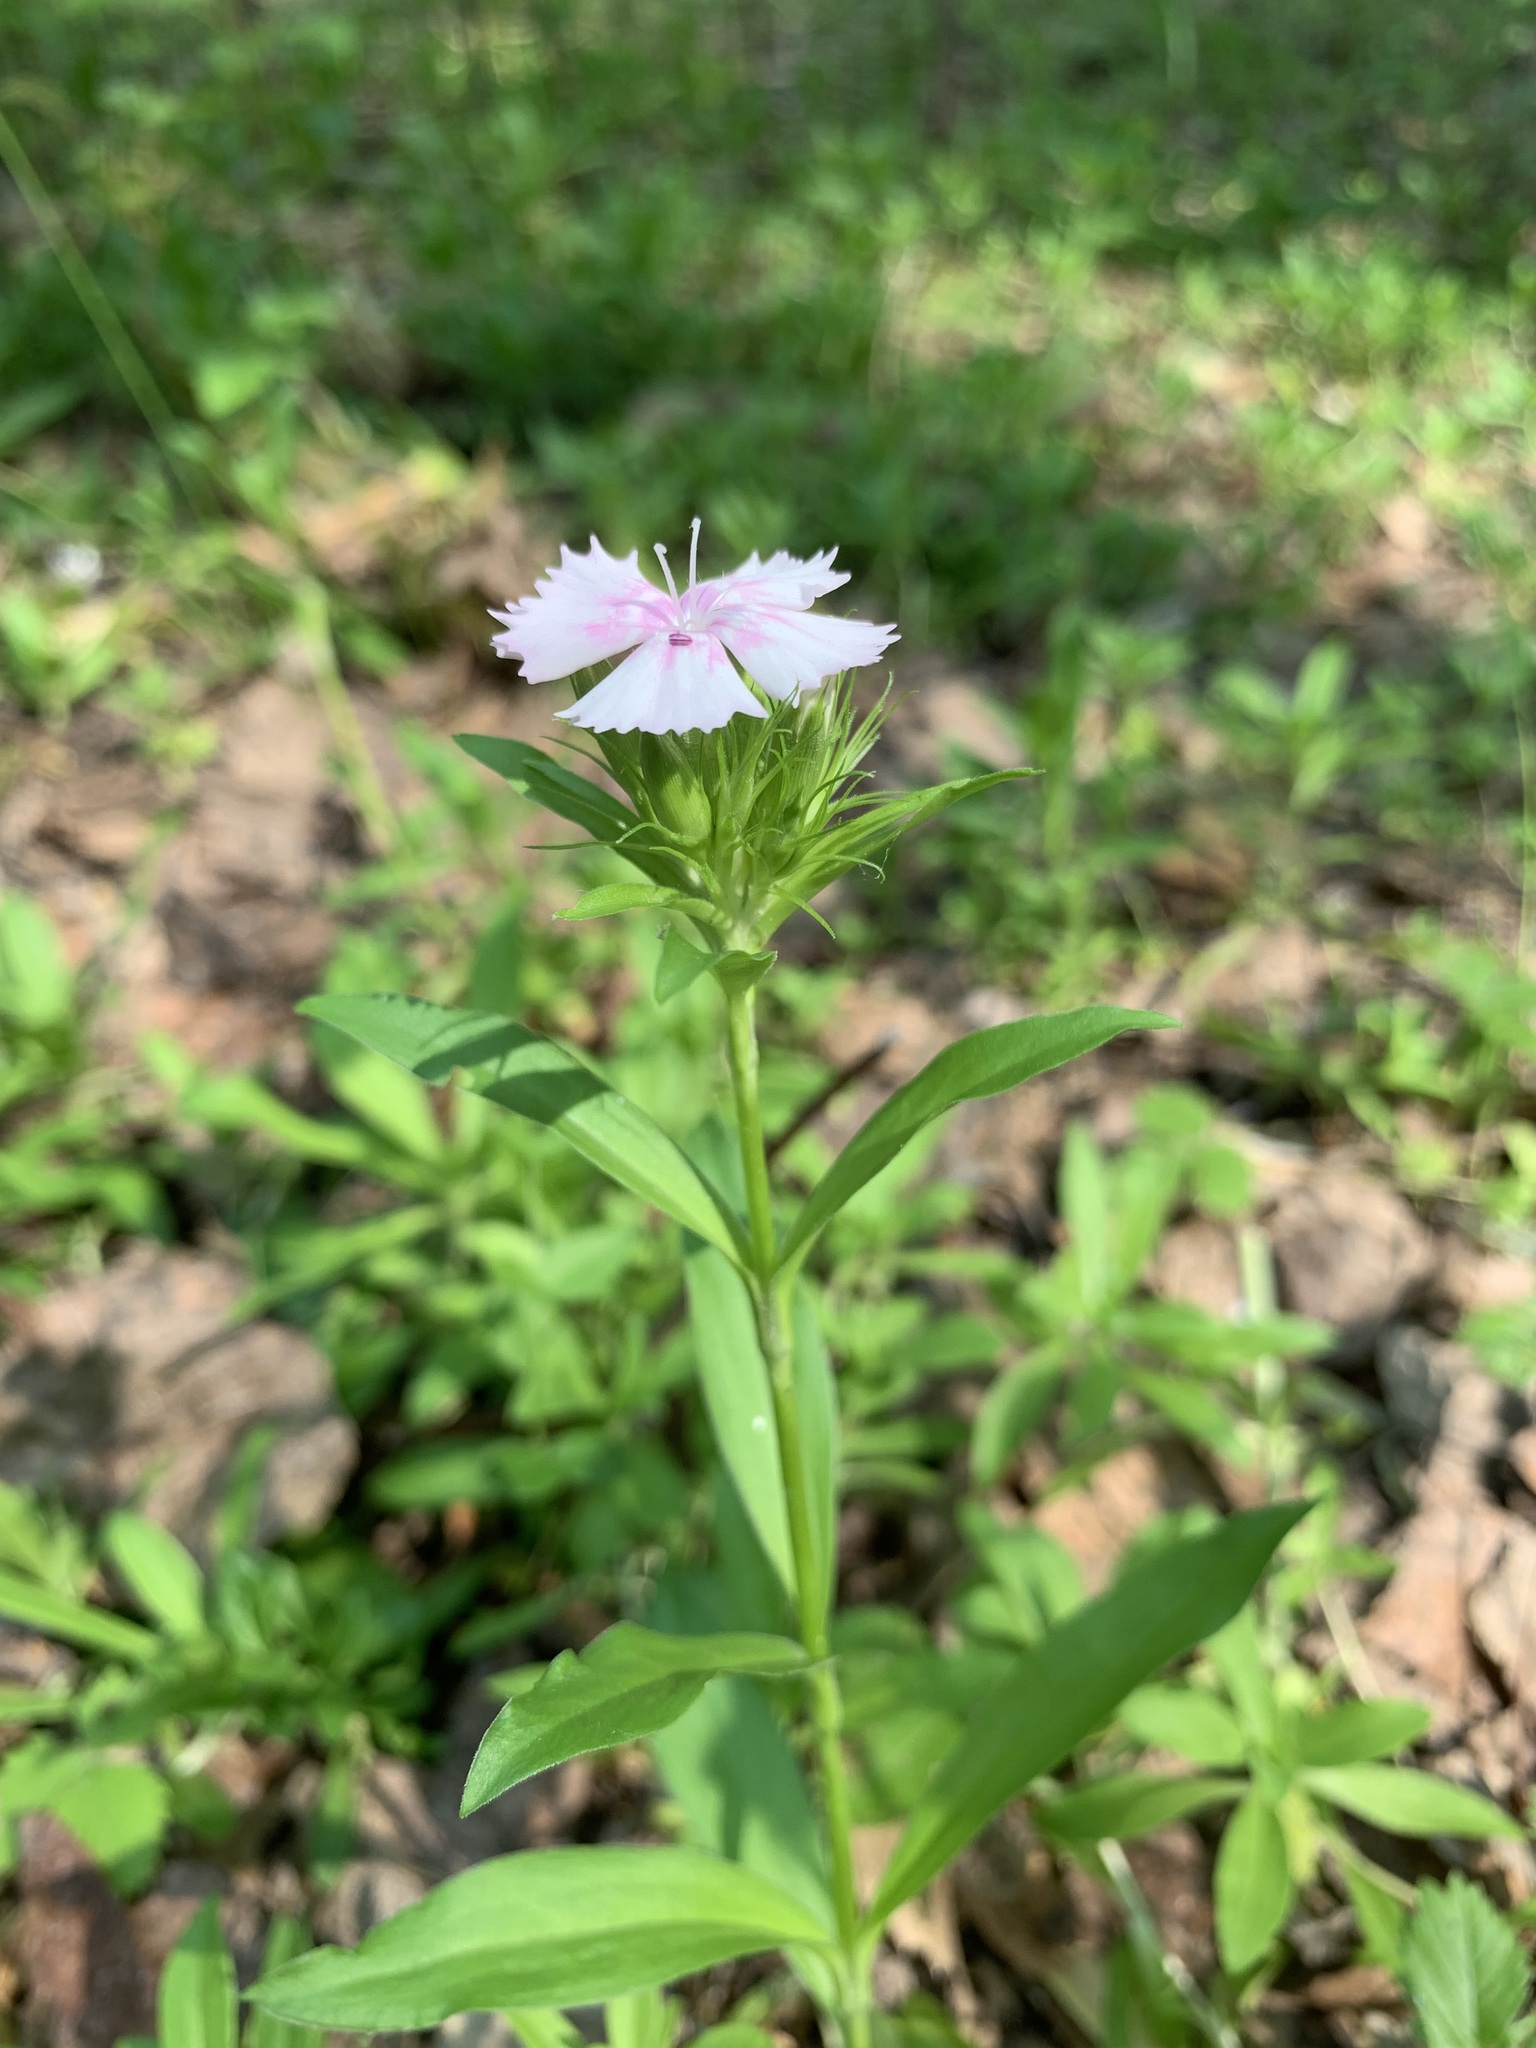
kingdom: Plantae
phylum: Tracheophyta
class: Magnoliopsida
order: Caryophyllales
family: Caryophyllaceae
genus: Dianthus
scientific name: Dianthus barbatus
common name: Sweet-william
